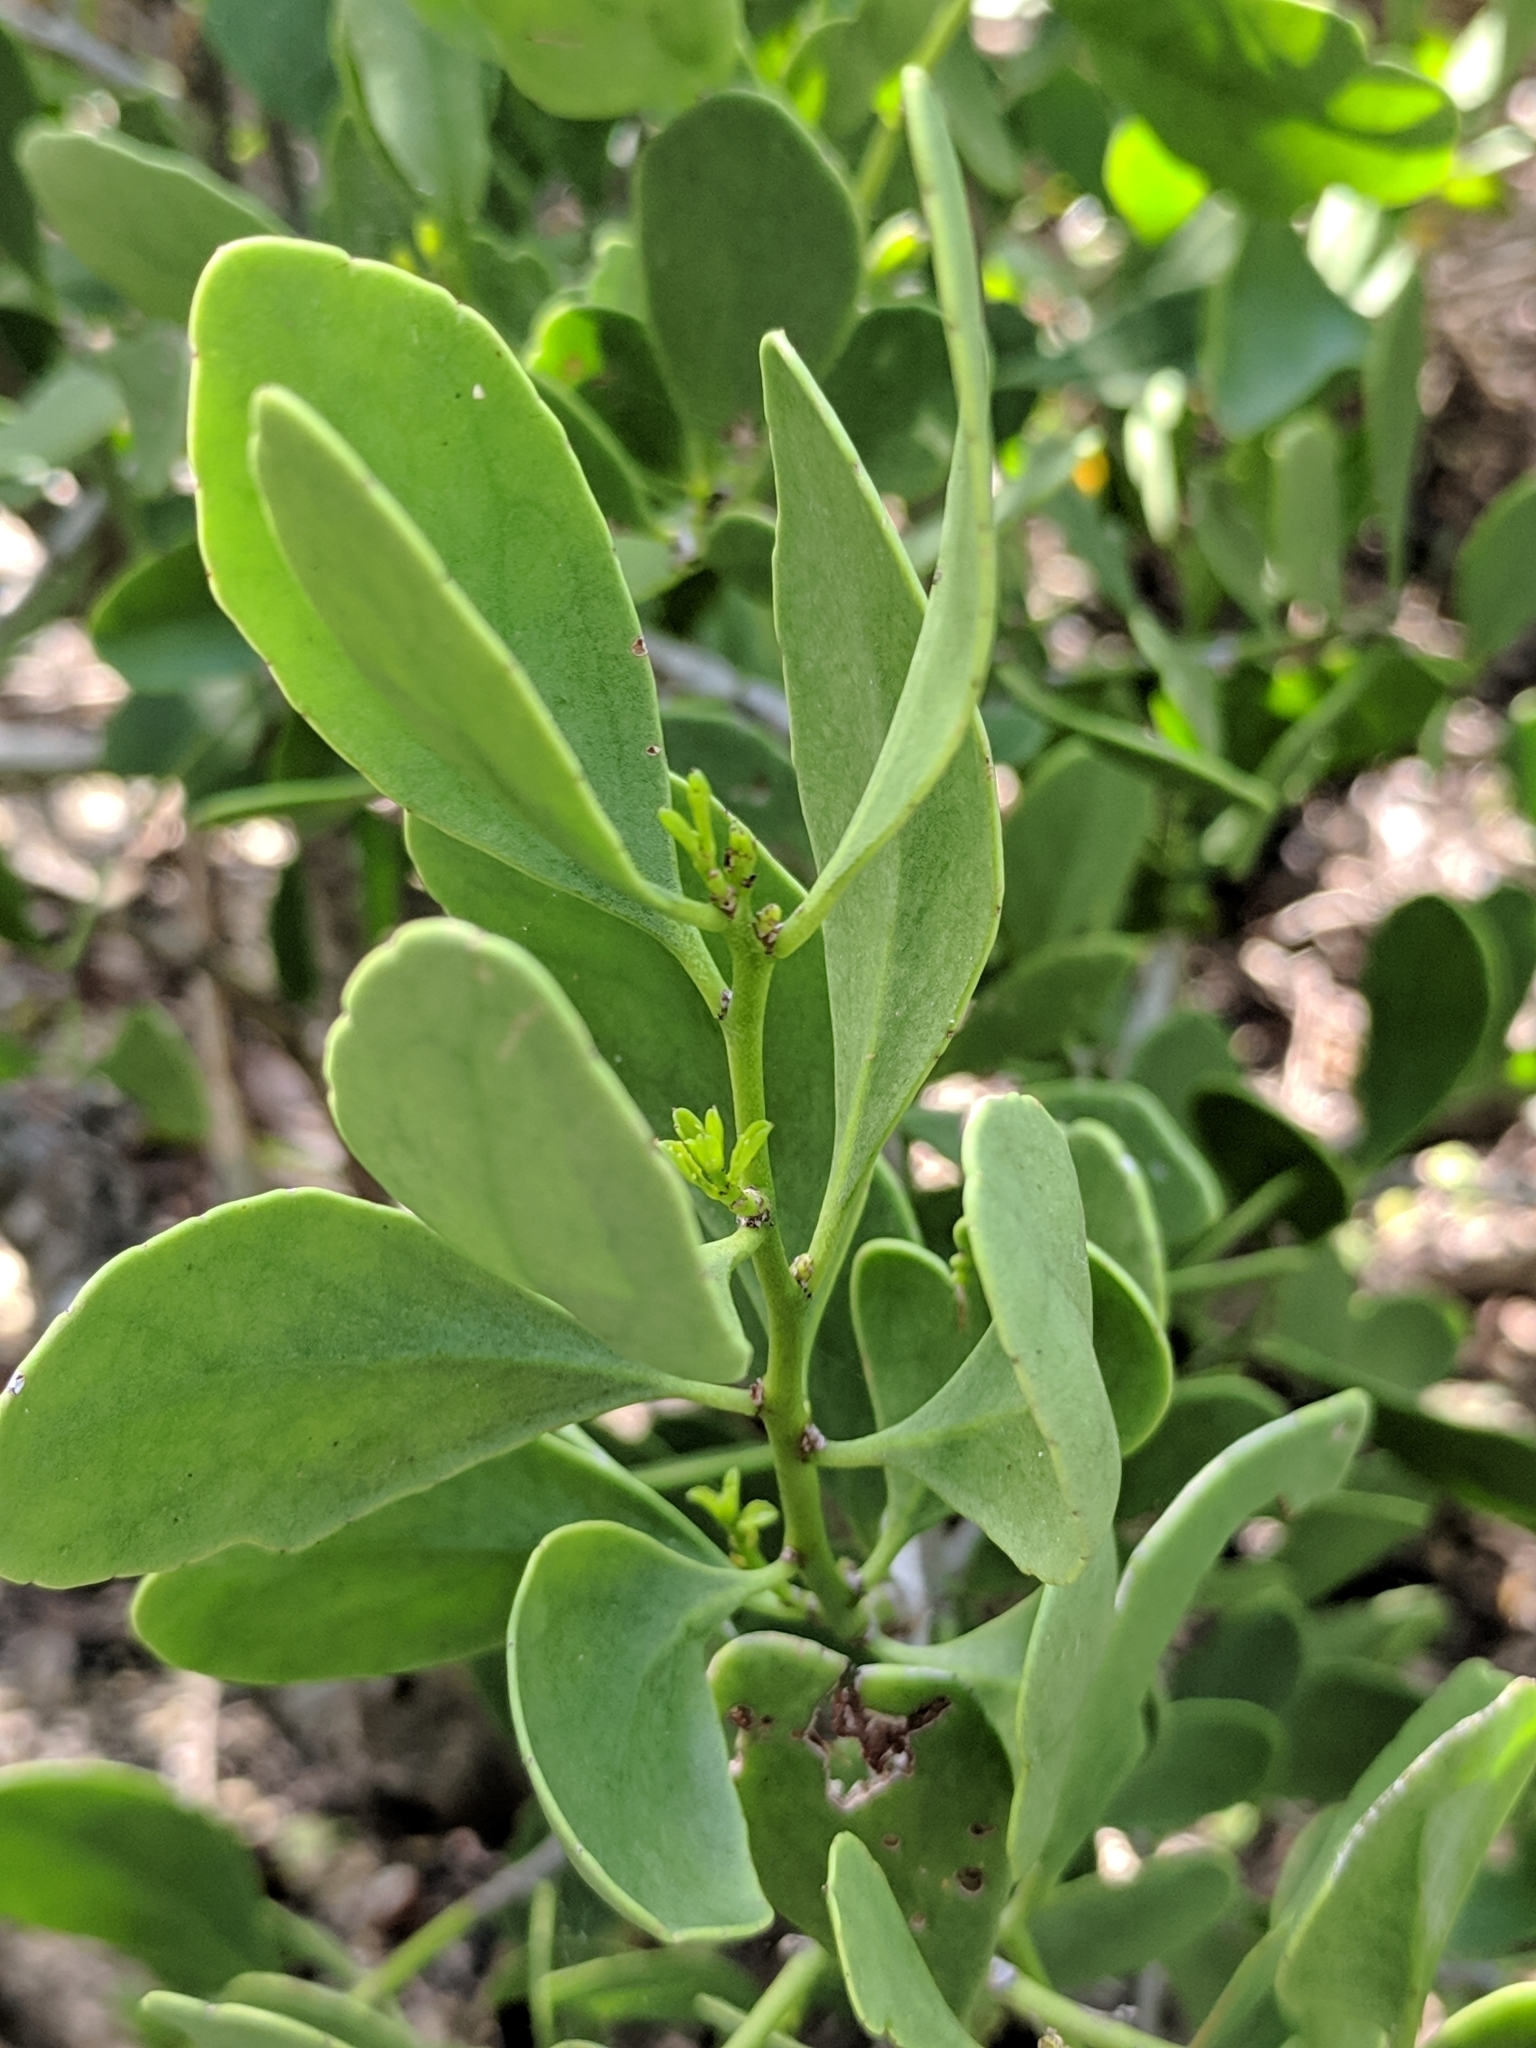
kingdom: Plantae
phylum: Tracheophyta
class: Magnoliopsida
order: Celastrales
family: Celastraceae
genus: Tricerma
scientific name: Tricerma phyllanthoides
